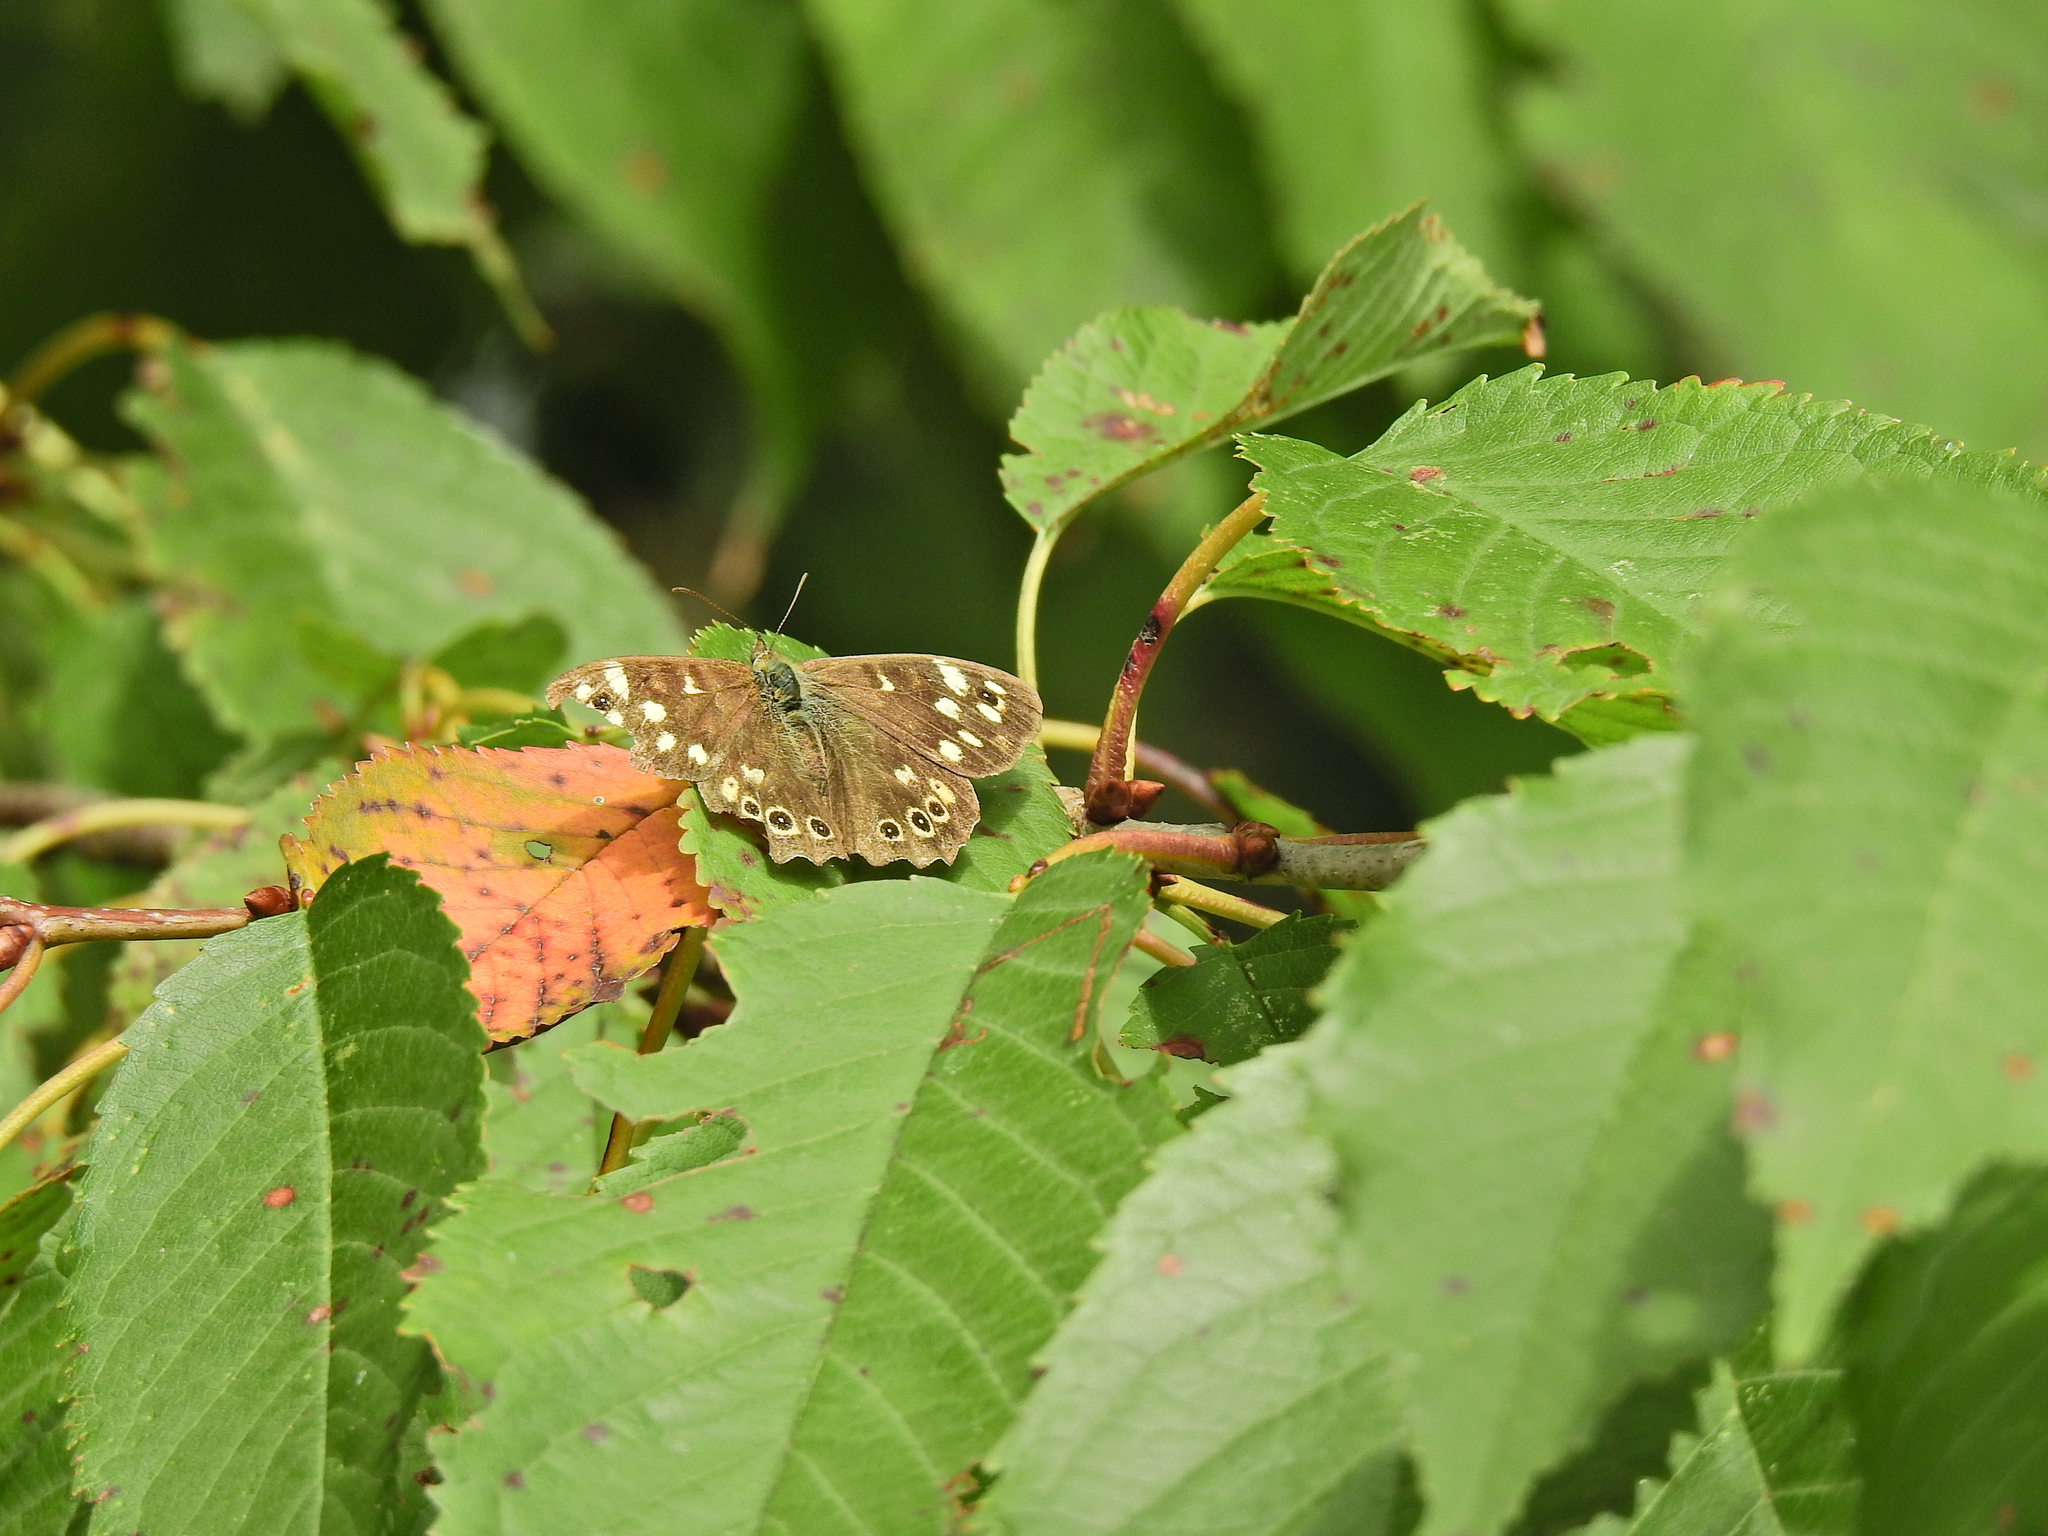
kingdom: Animalia
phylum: Arthropoda
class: Insecta
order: Lepidoptera
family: Nymphalidae
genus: Pararge
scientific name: Pararge aegeria
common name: Speckled wood
